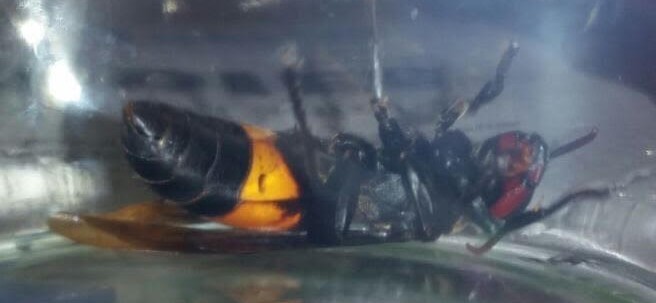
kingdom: Animalia
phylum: Arthropoda
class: Insecta
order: Hymenoptera
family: Vespidae
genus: Vespa
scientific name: Vespa tropica
